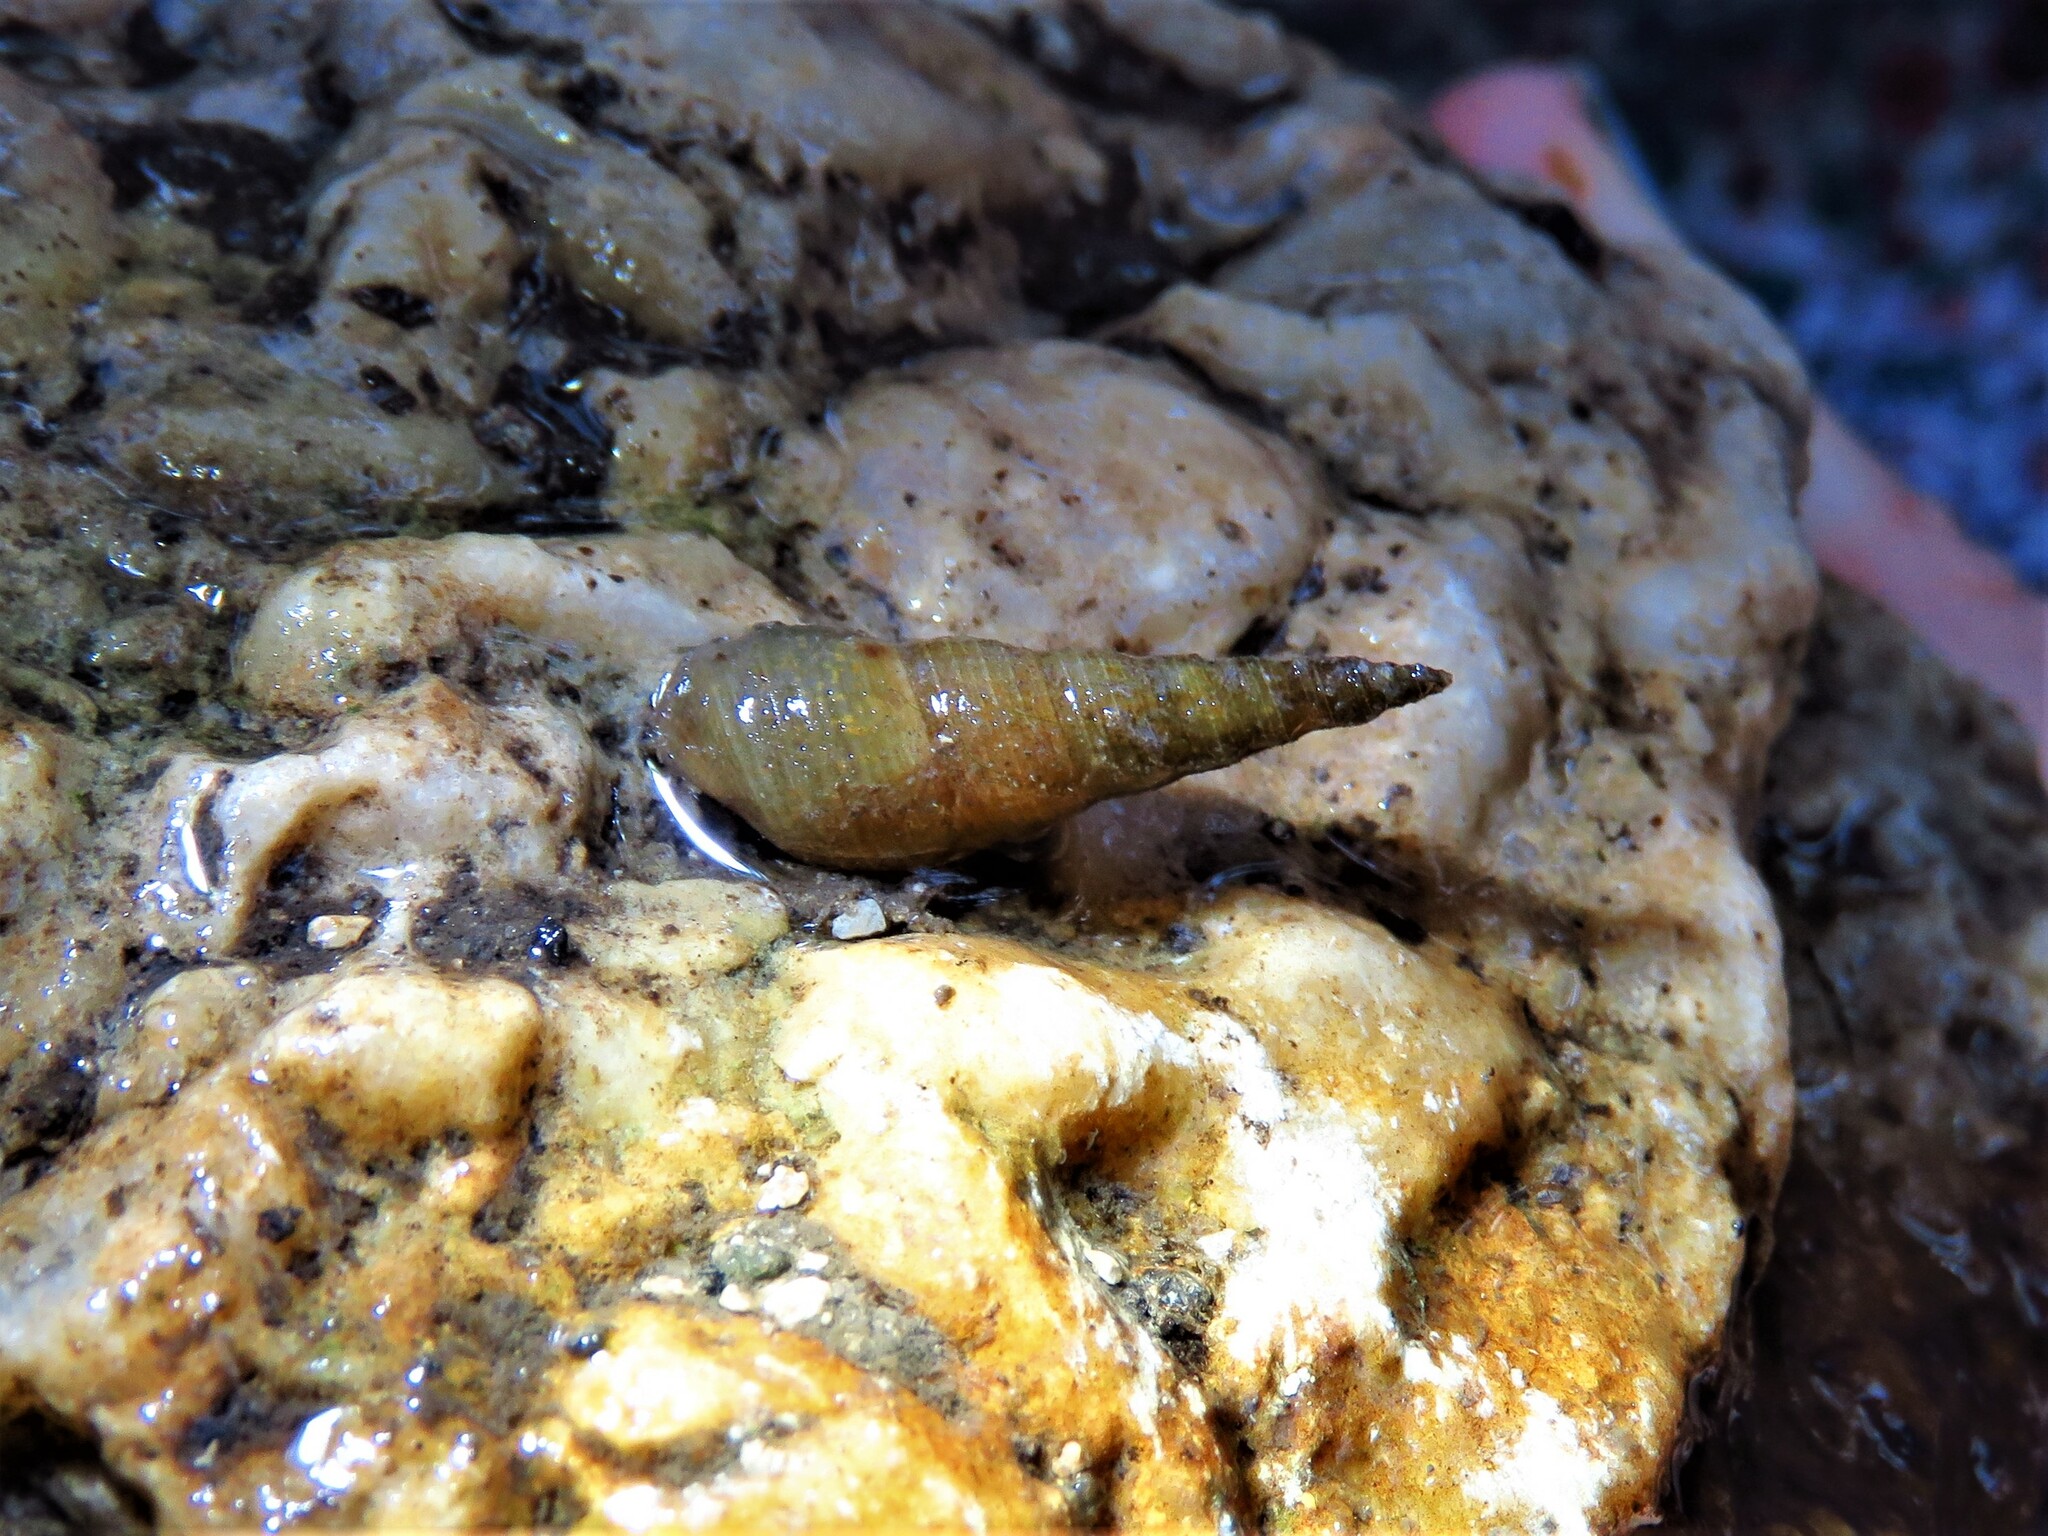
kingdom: Animalia
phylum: Mollusca
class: Gastropoda
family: Thiaridae
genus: Melanoides
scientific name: Melanoides tuberculata
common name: Red-rim melania
